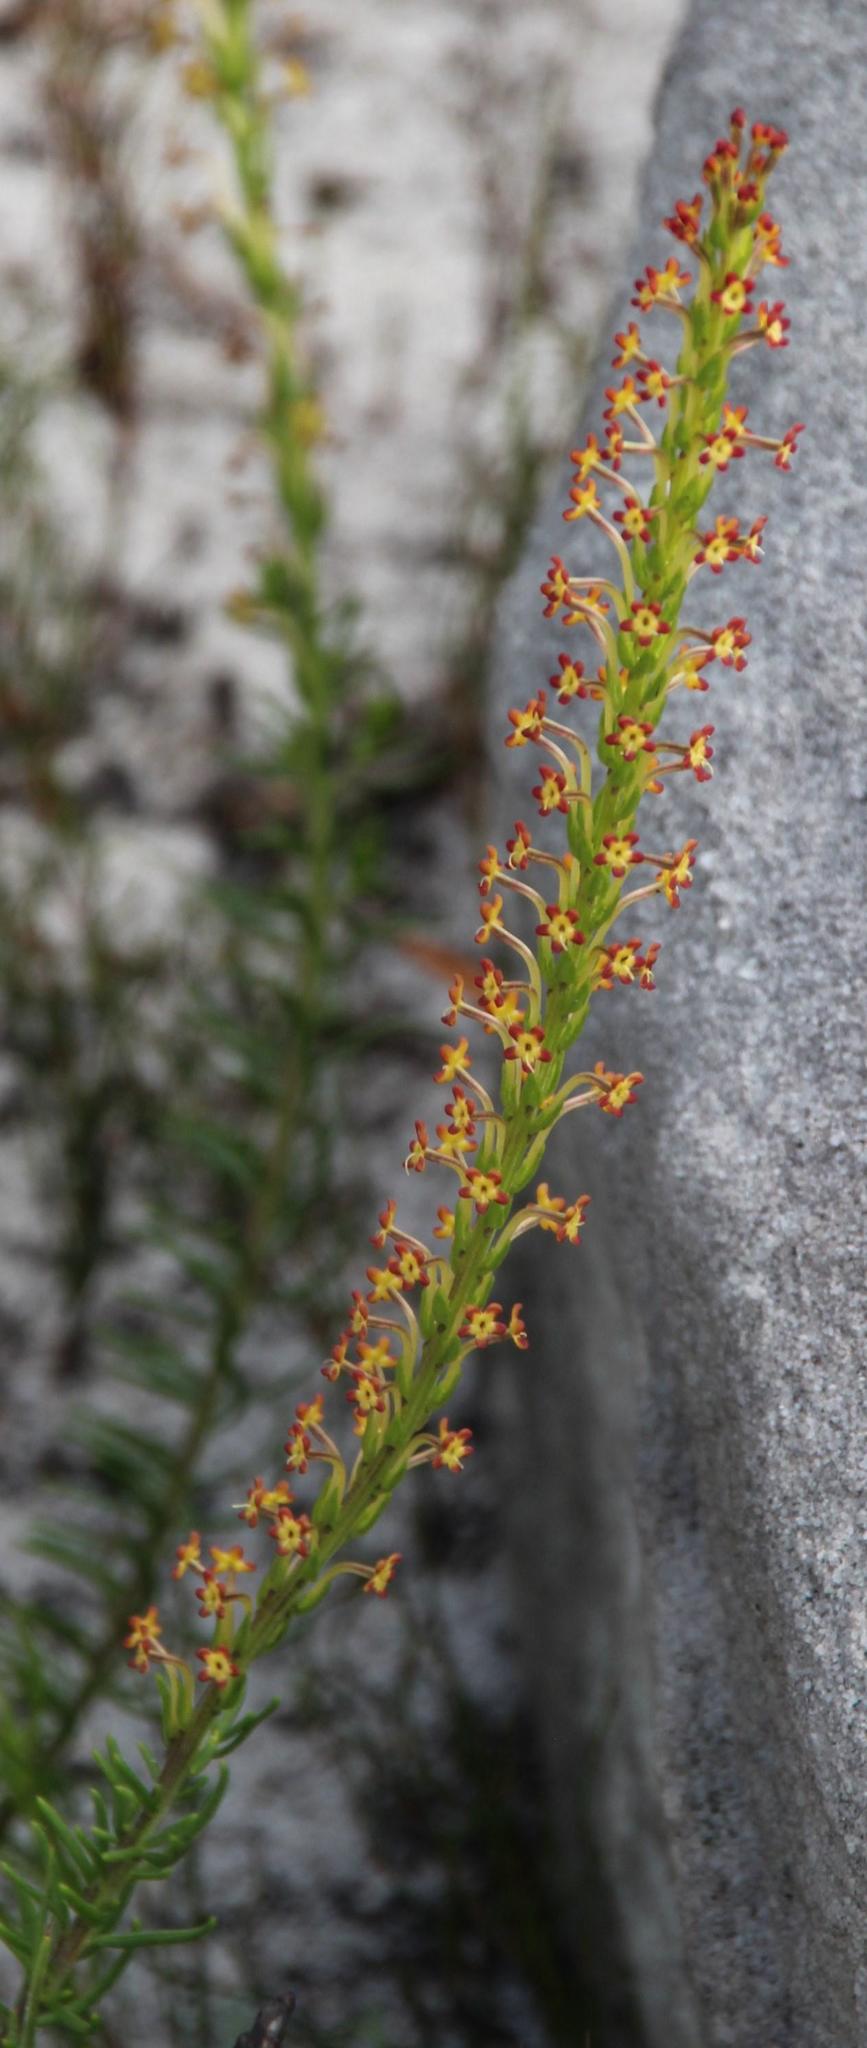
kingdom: Plantae
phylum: Tracheophyta
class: Magnoliopsida
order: Lamiales
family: Scrophulariaceae
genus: Microdon
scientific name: Microdon dubius
